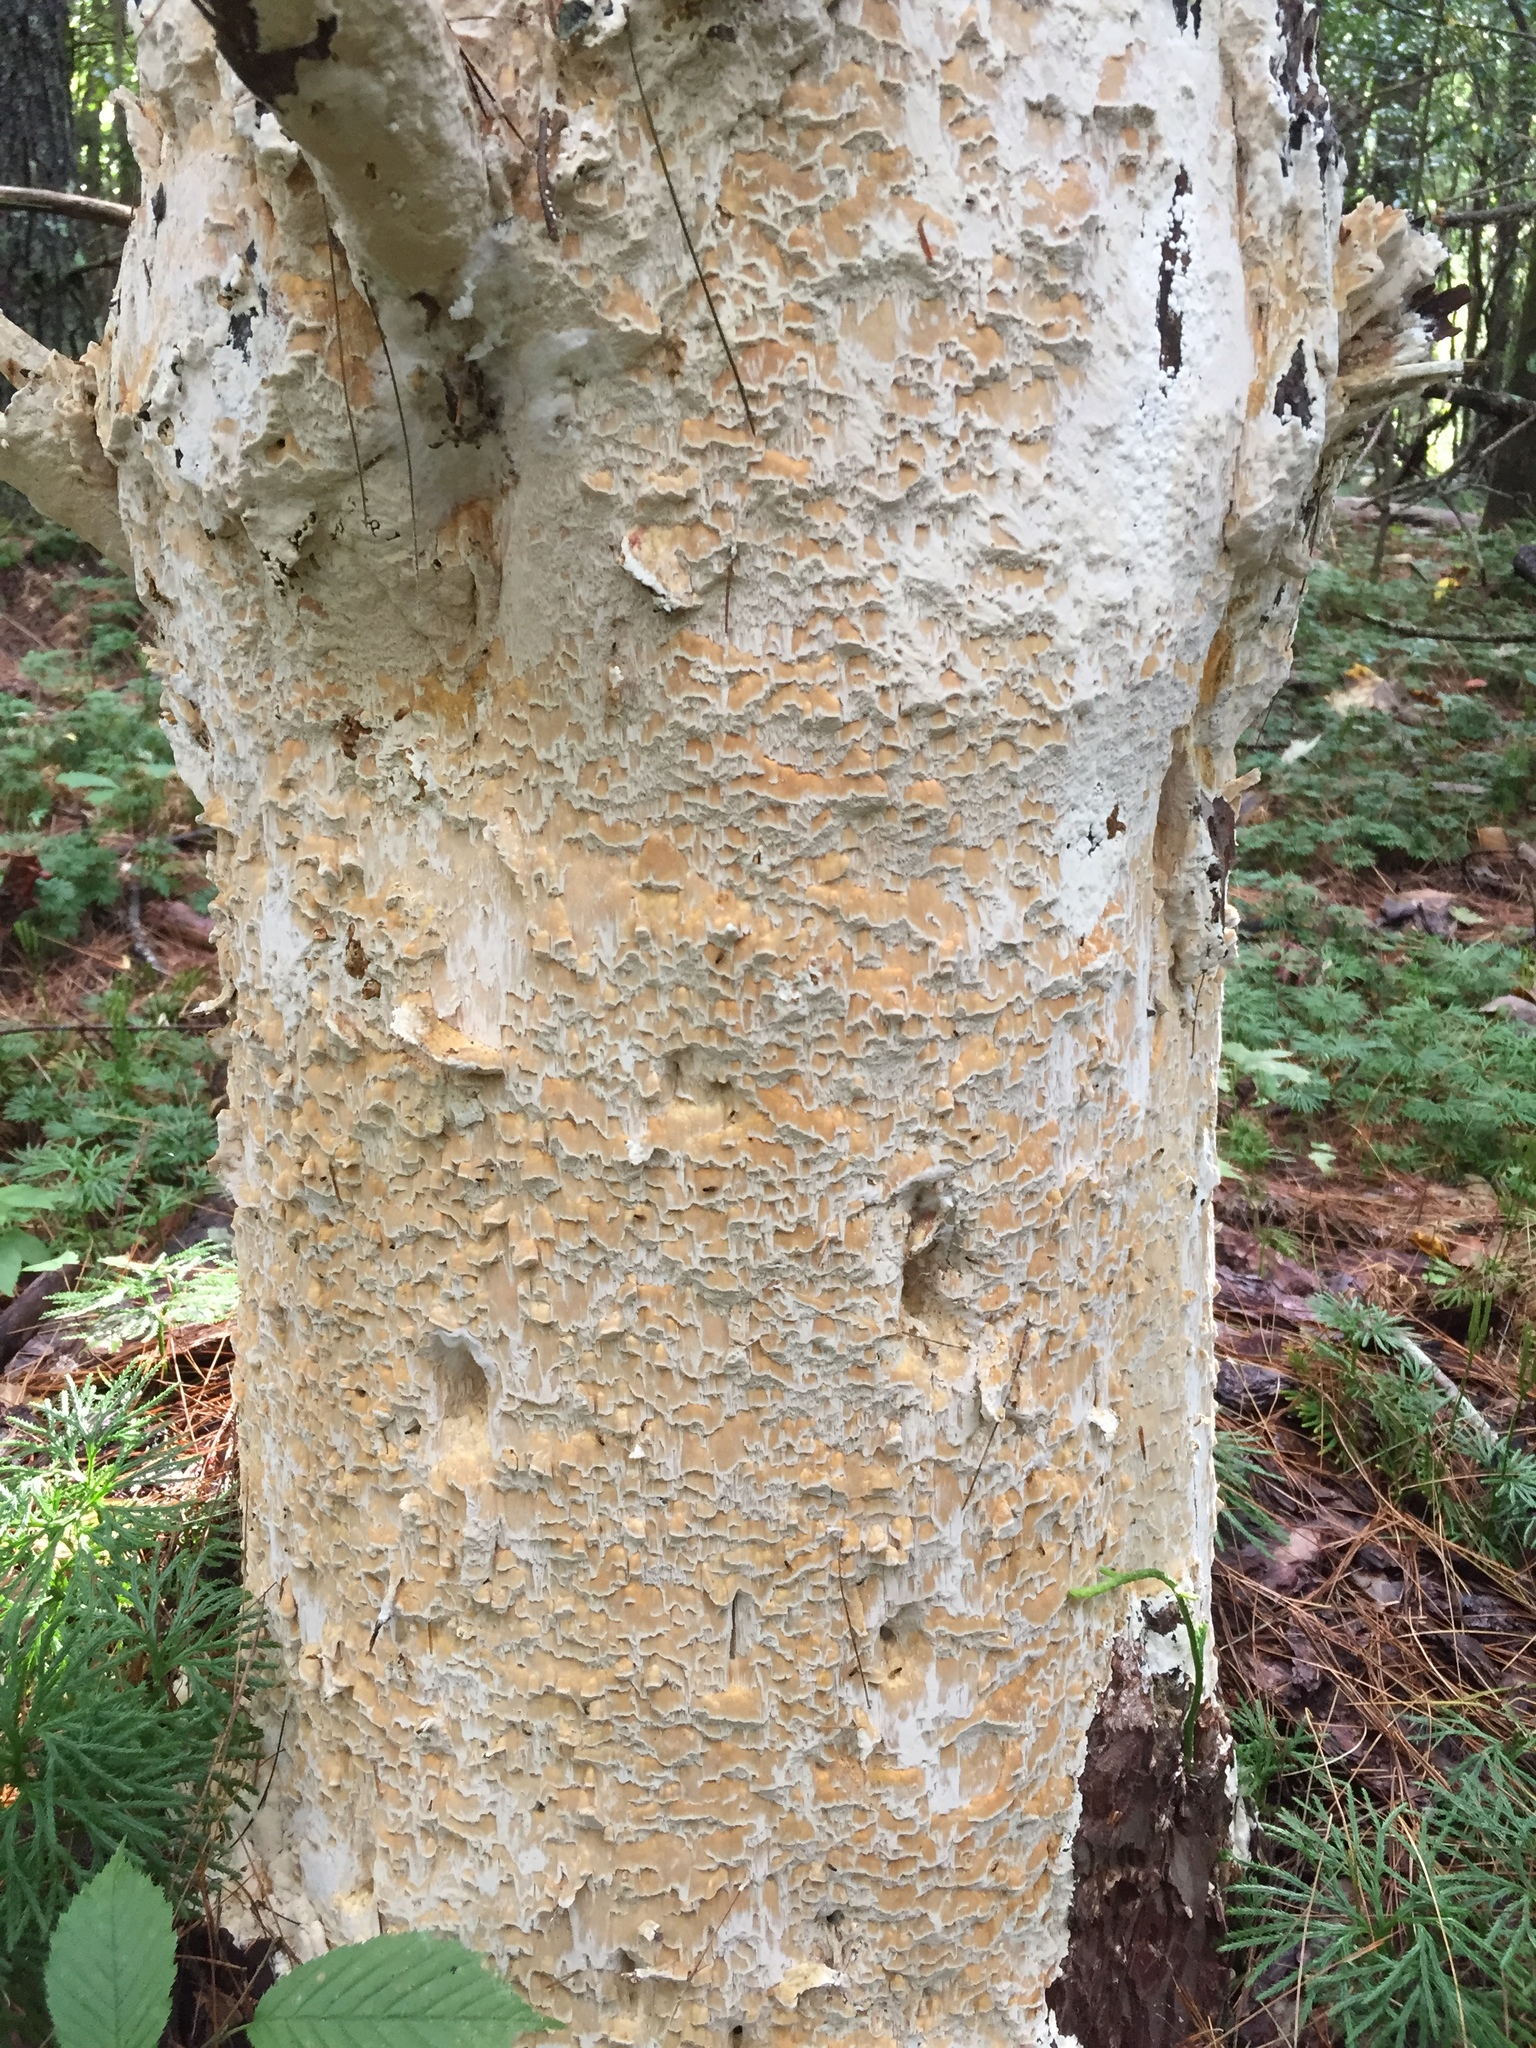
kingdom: Fungi
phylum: Basidiomycota
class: Agaricomycetes
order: Polyporales
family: Irpicaceae
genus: Irpex
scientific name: Irpex lacteus
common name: Milk-white toothed polypore
